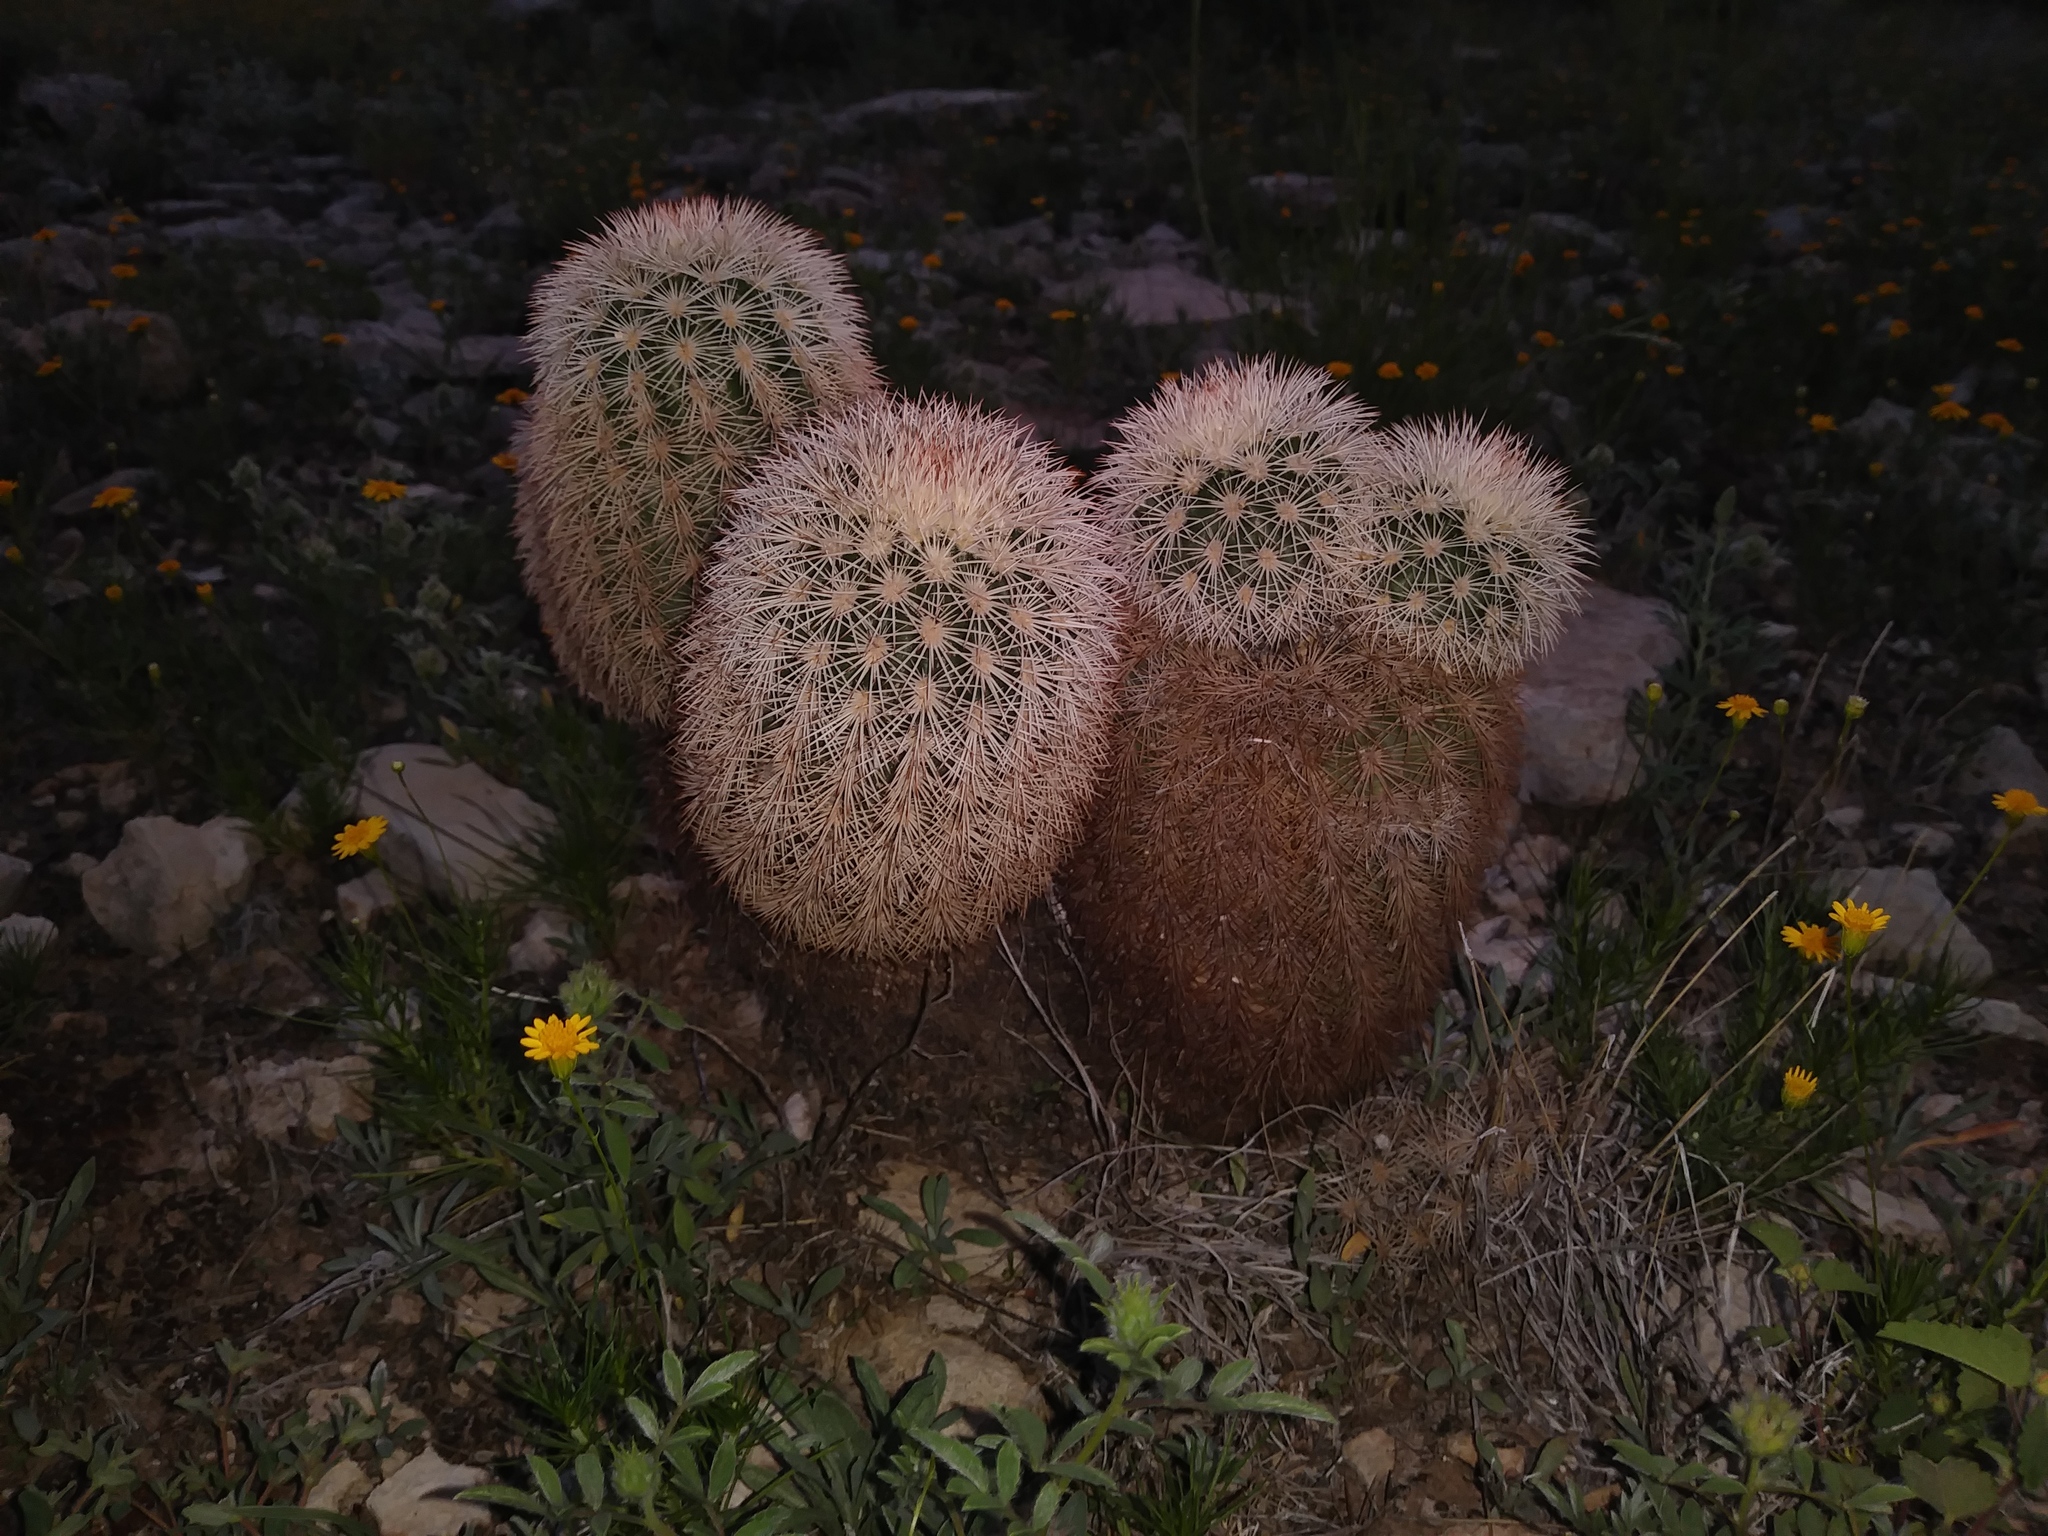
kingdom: Plantae
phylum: Tracheophyta
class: Magnoliopsida
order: Caryophyllales
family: Cactaceae
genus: Echinocereus
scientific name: Echinocereus dasyacanthus
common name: Spiny hedgehog cactus
